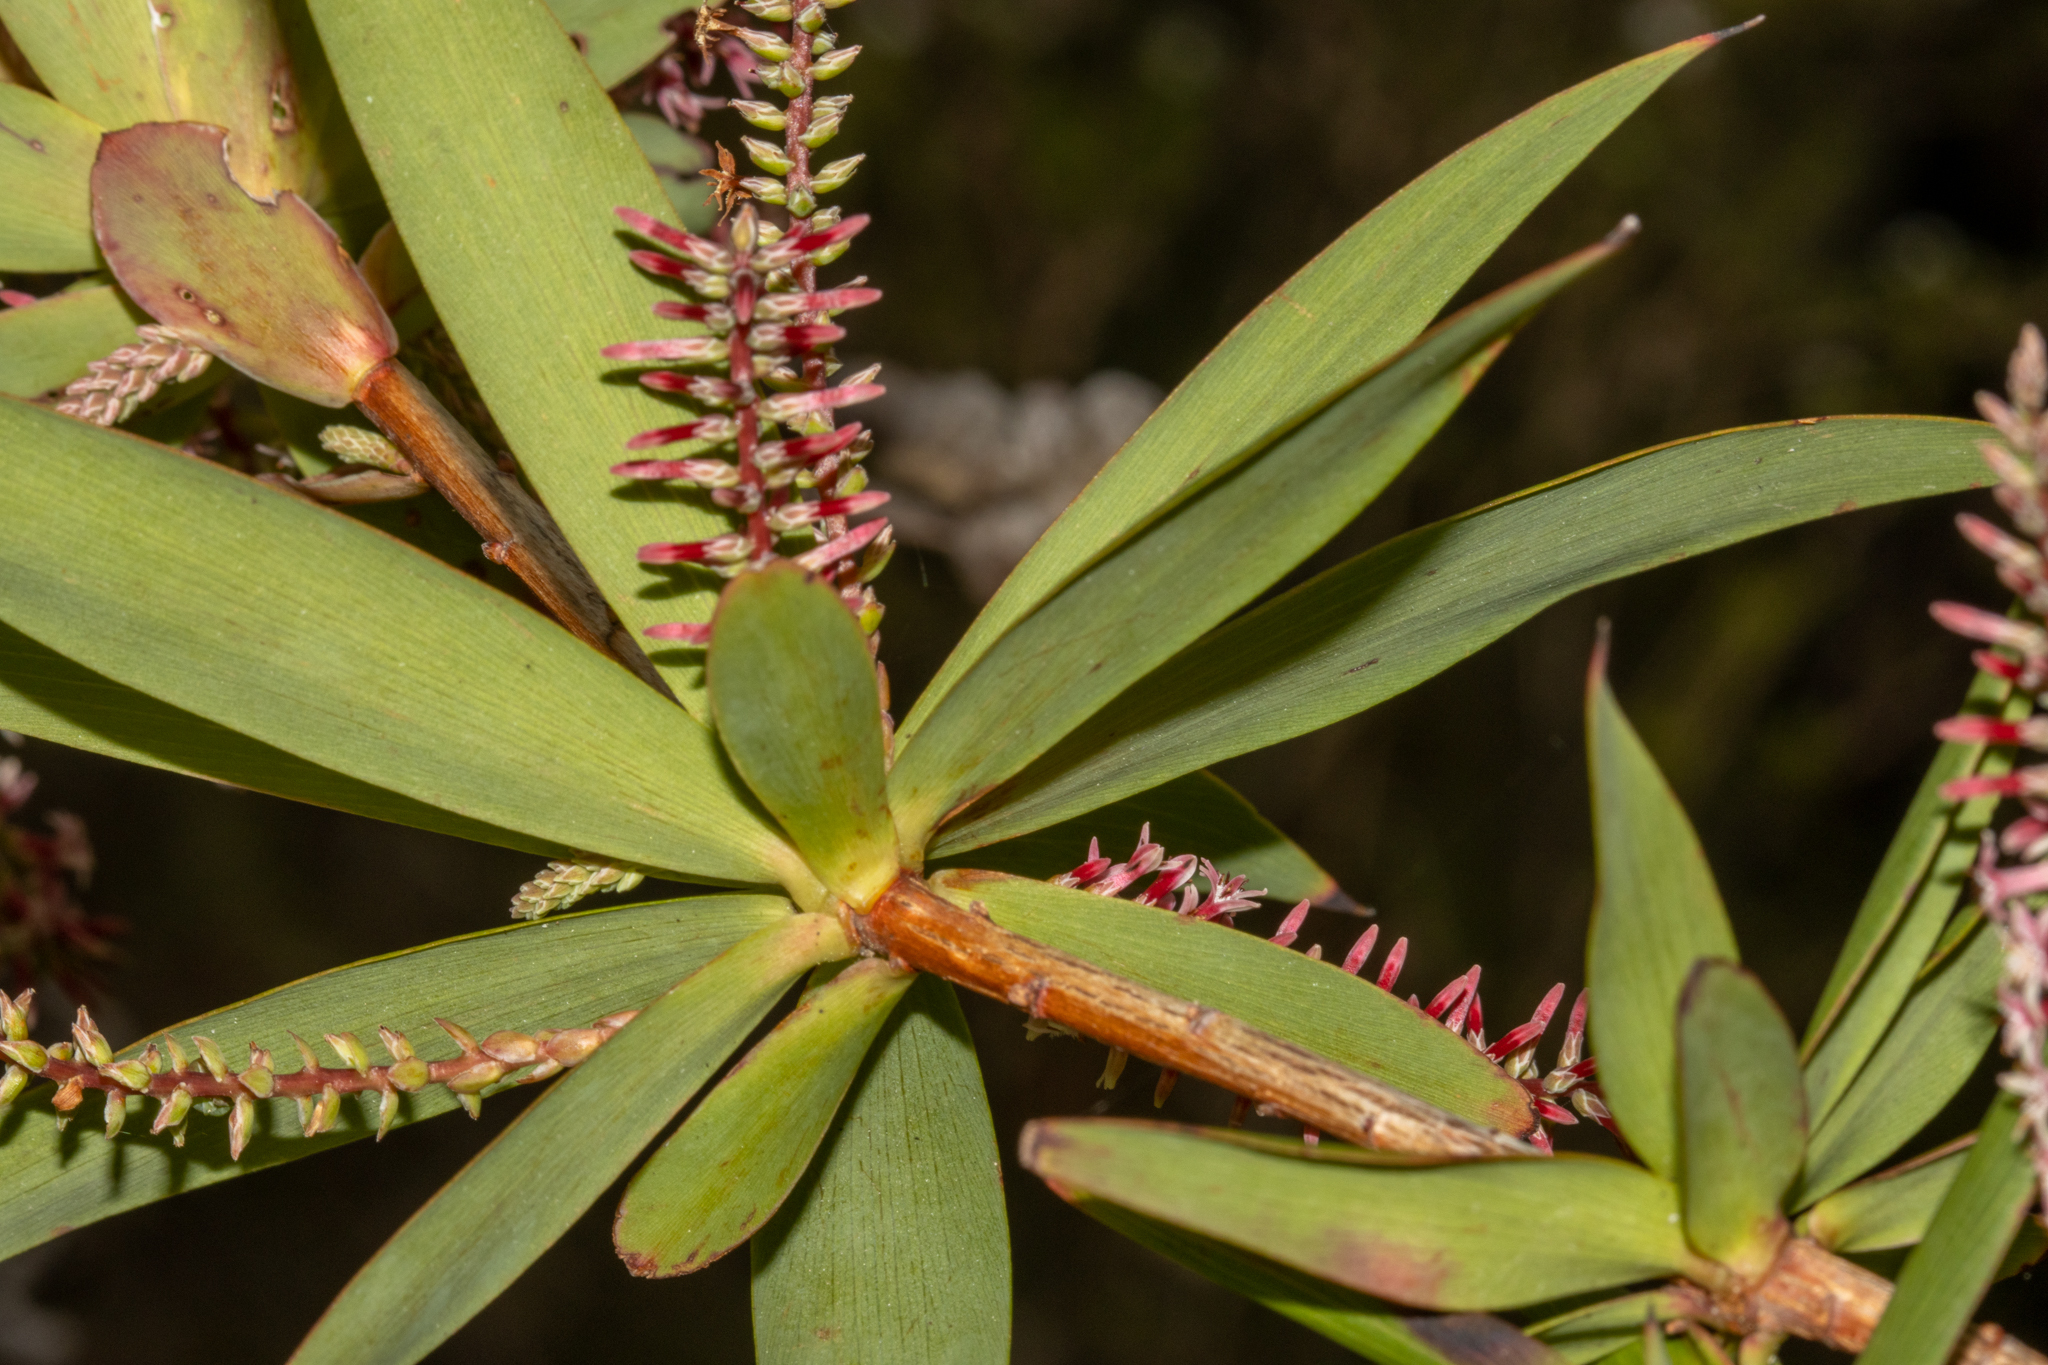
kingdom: Plantae
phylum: Tracheophyta
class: Magnoliopsida
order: Ericales
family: Ericaceae
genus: Leucopogon
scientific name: Leucopogon verticillatus
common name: Tasselshrub
